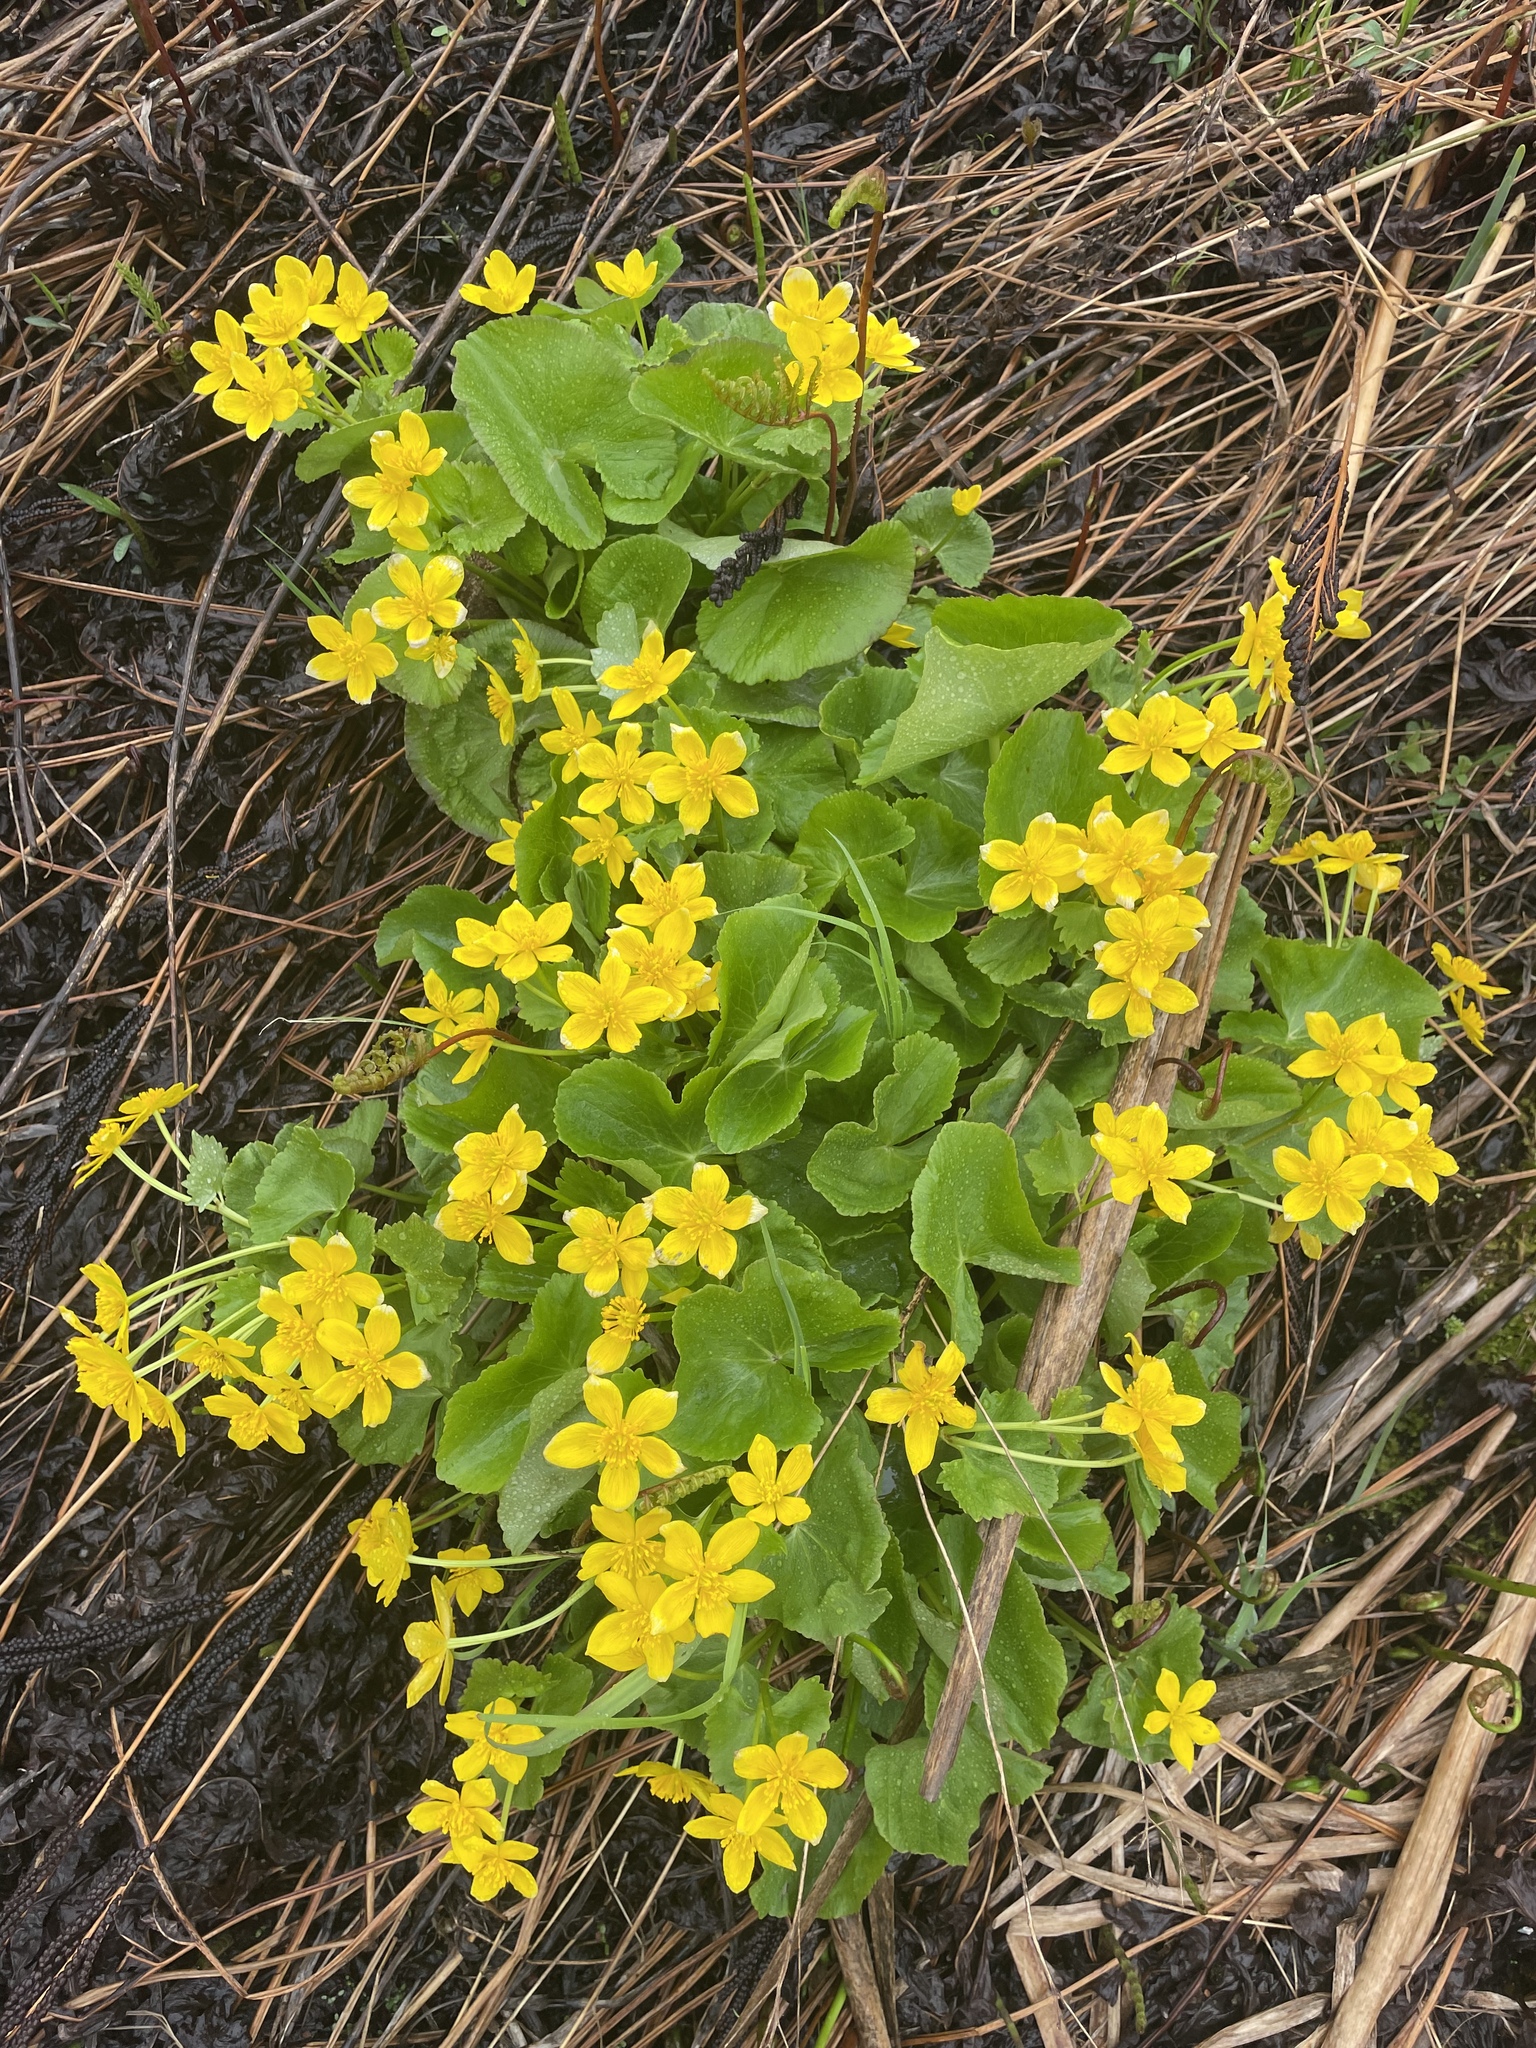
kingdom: Plantae
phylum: Tracheophyta
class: Magnoliopsida
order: Ranunculales
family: Ranunculaceae
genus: Caltha
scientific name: Caltha palustris
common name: Marsh marigold
